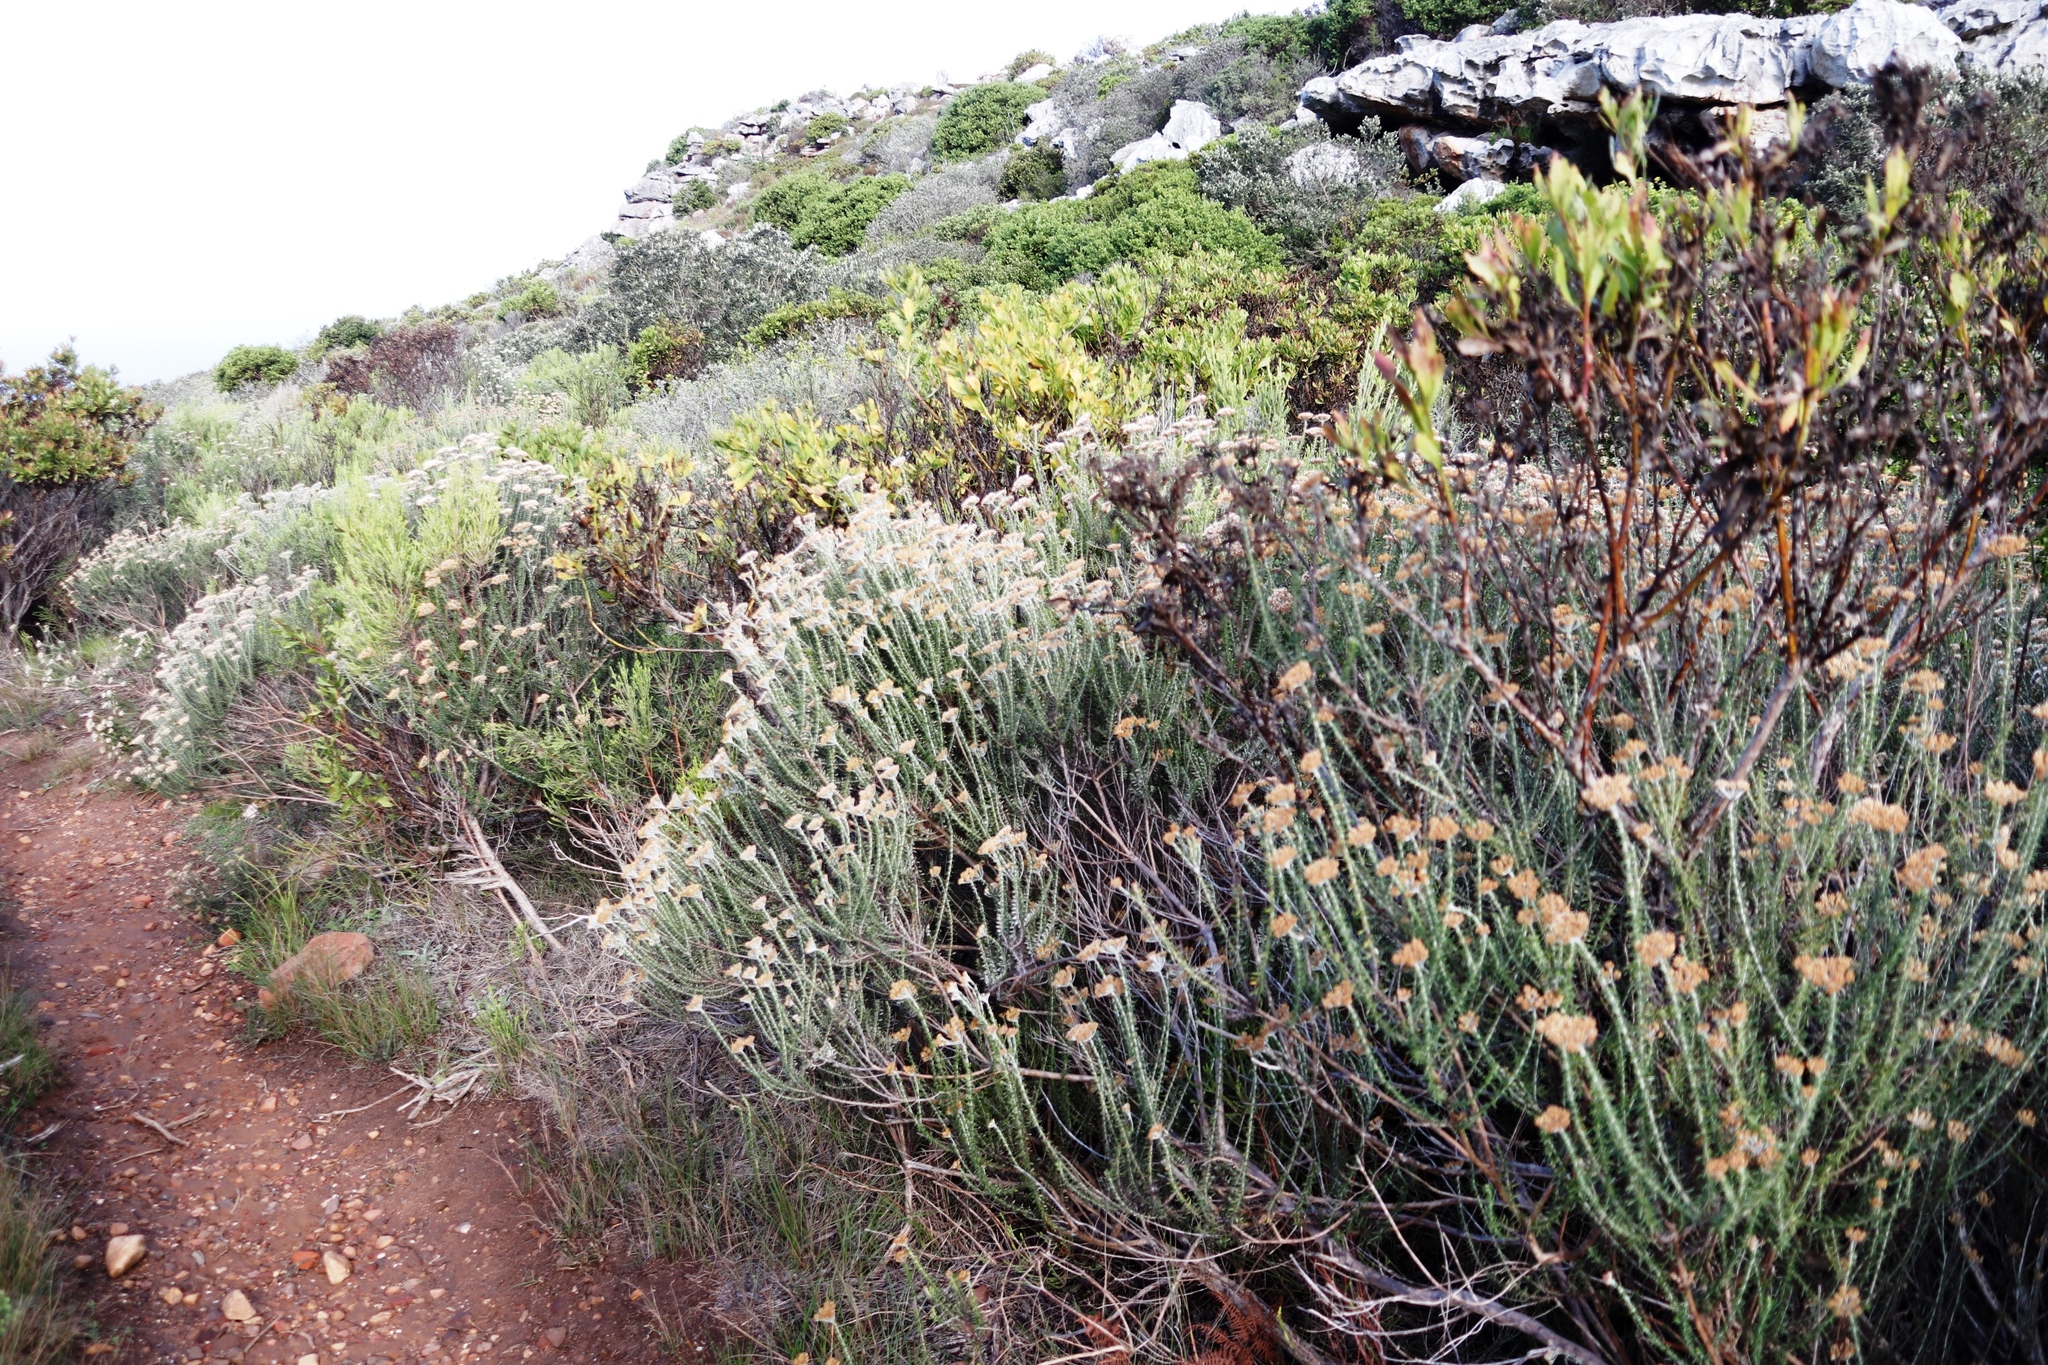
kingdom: Plantae
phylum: Tracheophyta
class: Magnoliopsida
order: Asterales
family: Asteraceae
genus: Metalasia
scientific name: Metalasia densa
